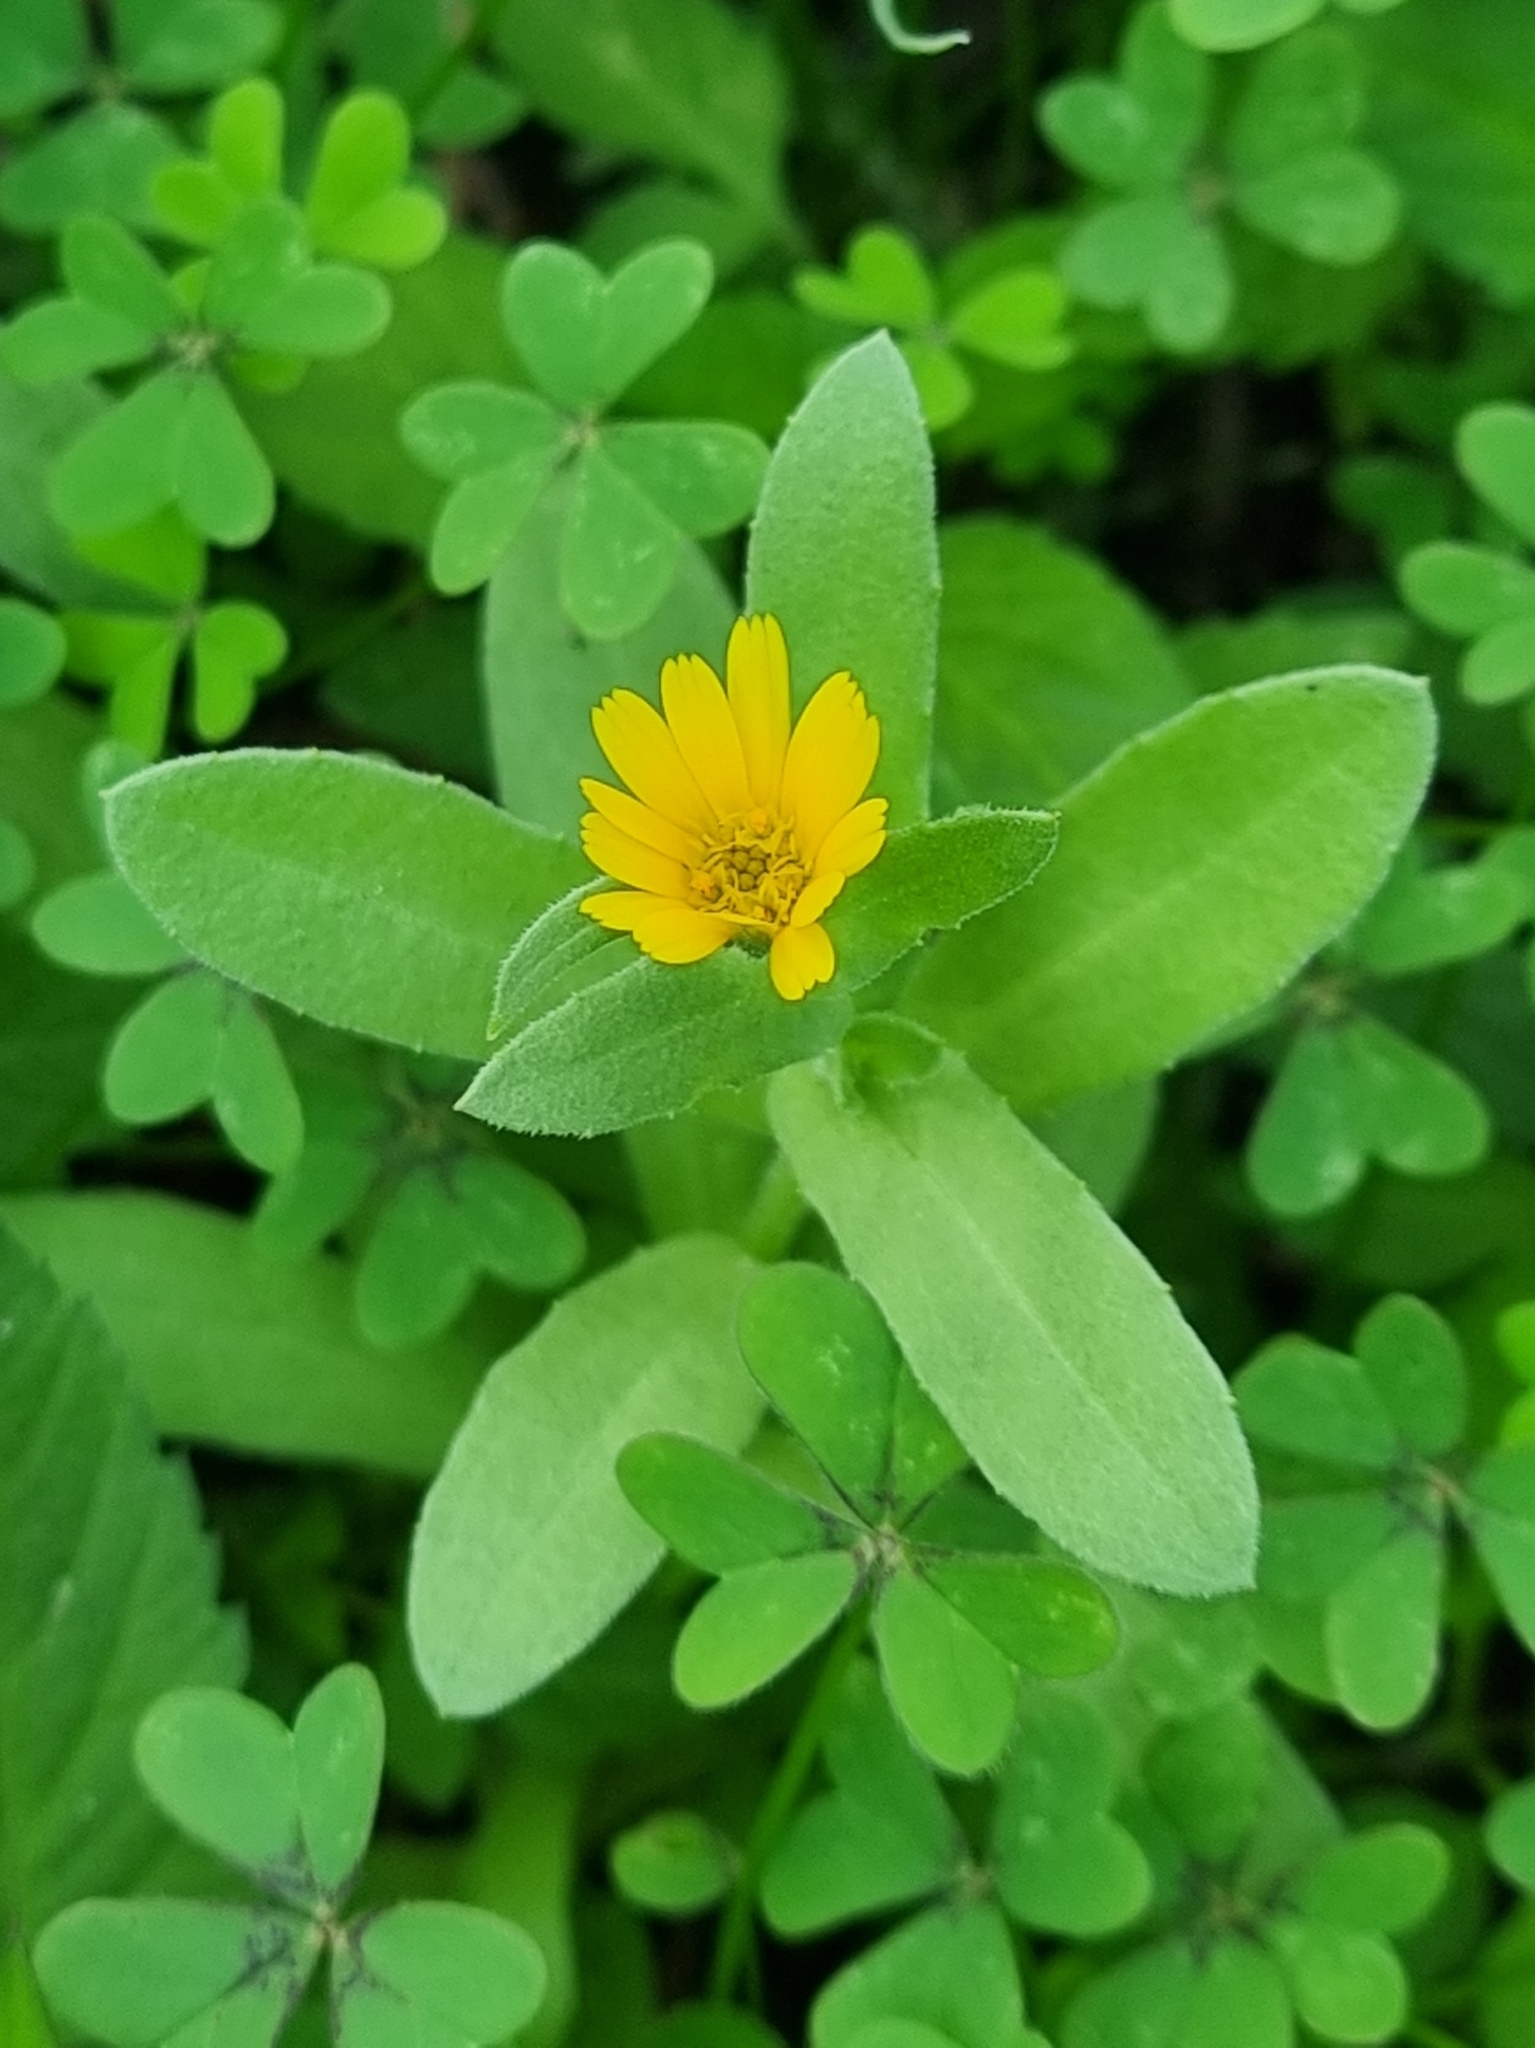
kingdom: Plantae
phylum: Tracheophyta
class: Magnoliopsida
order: Asterales
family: Asteraceae
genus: Calendula
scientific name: Calendula arvensis
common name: Field marigold
